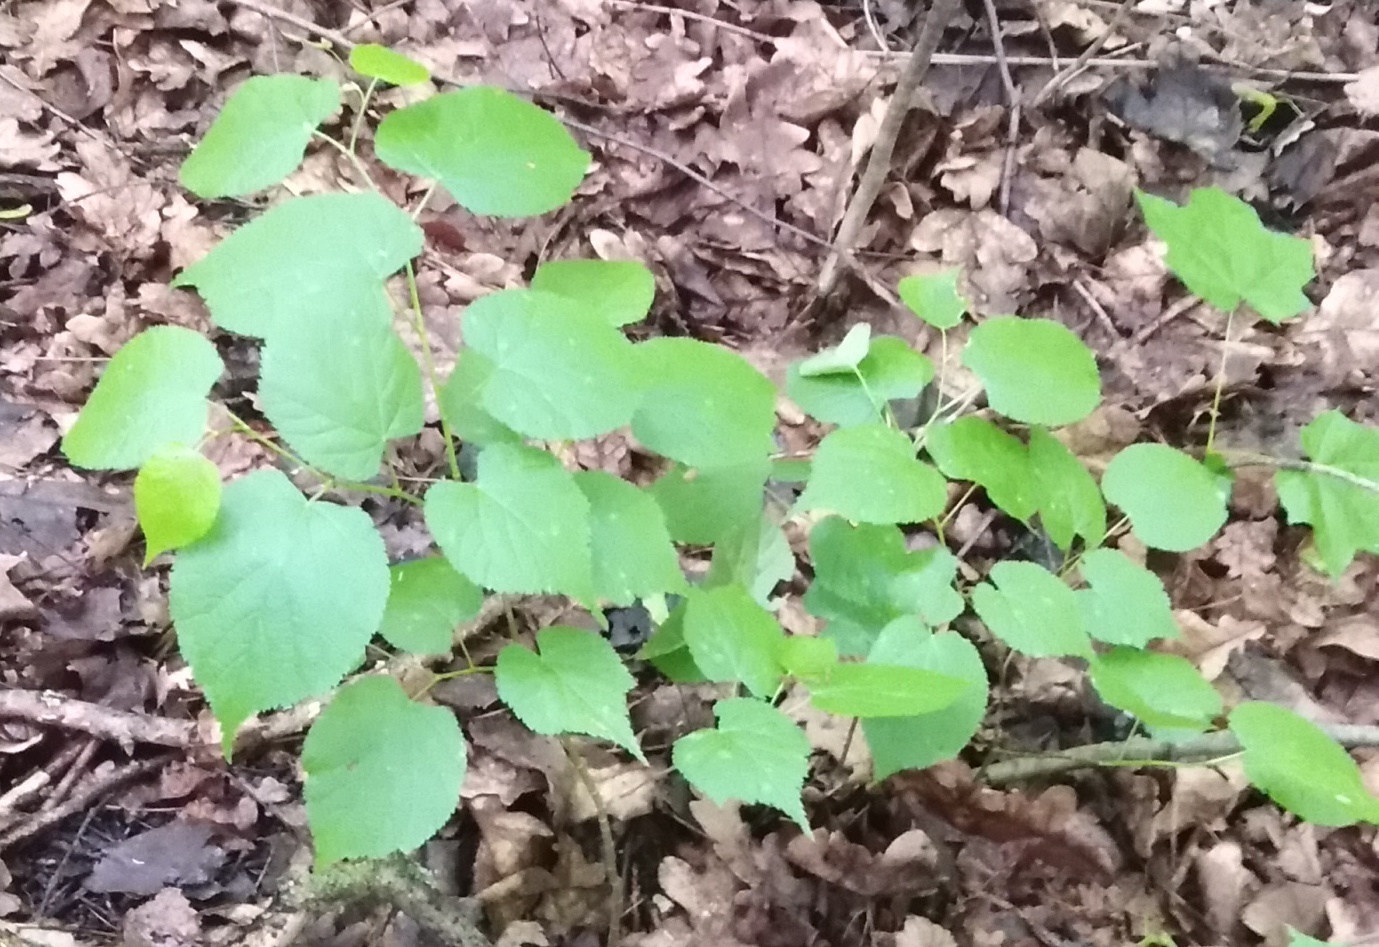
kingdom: Plantae
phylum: Tracheophyta
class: Magnoliopsida
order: Malvales
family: Malvaceae
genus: Tilia
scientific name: Tilia cordata
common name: Small-leaved lime
